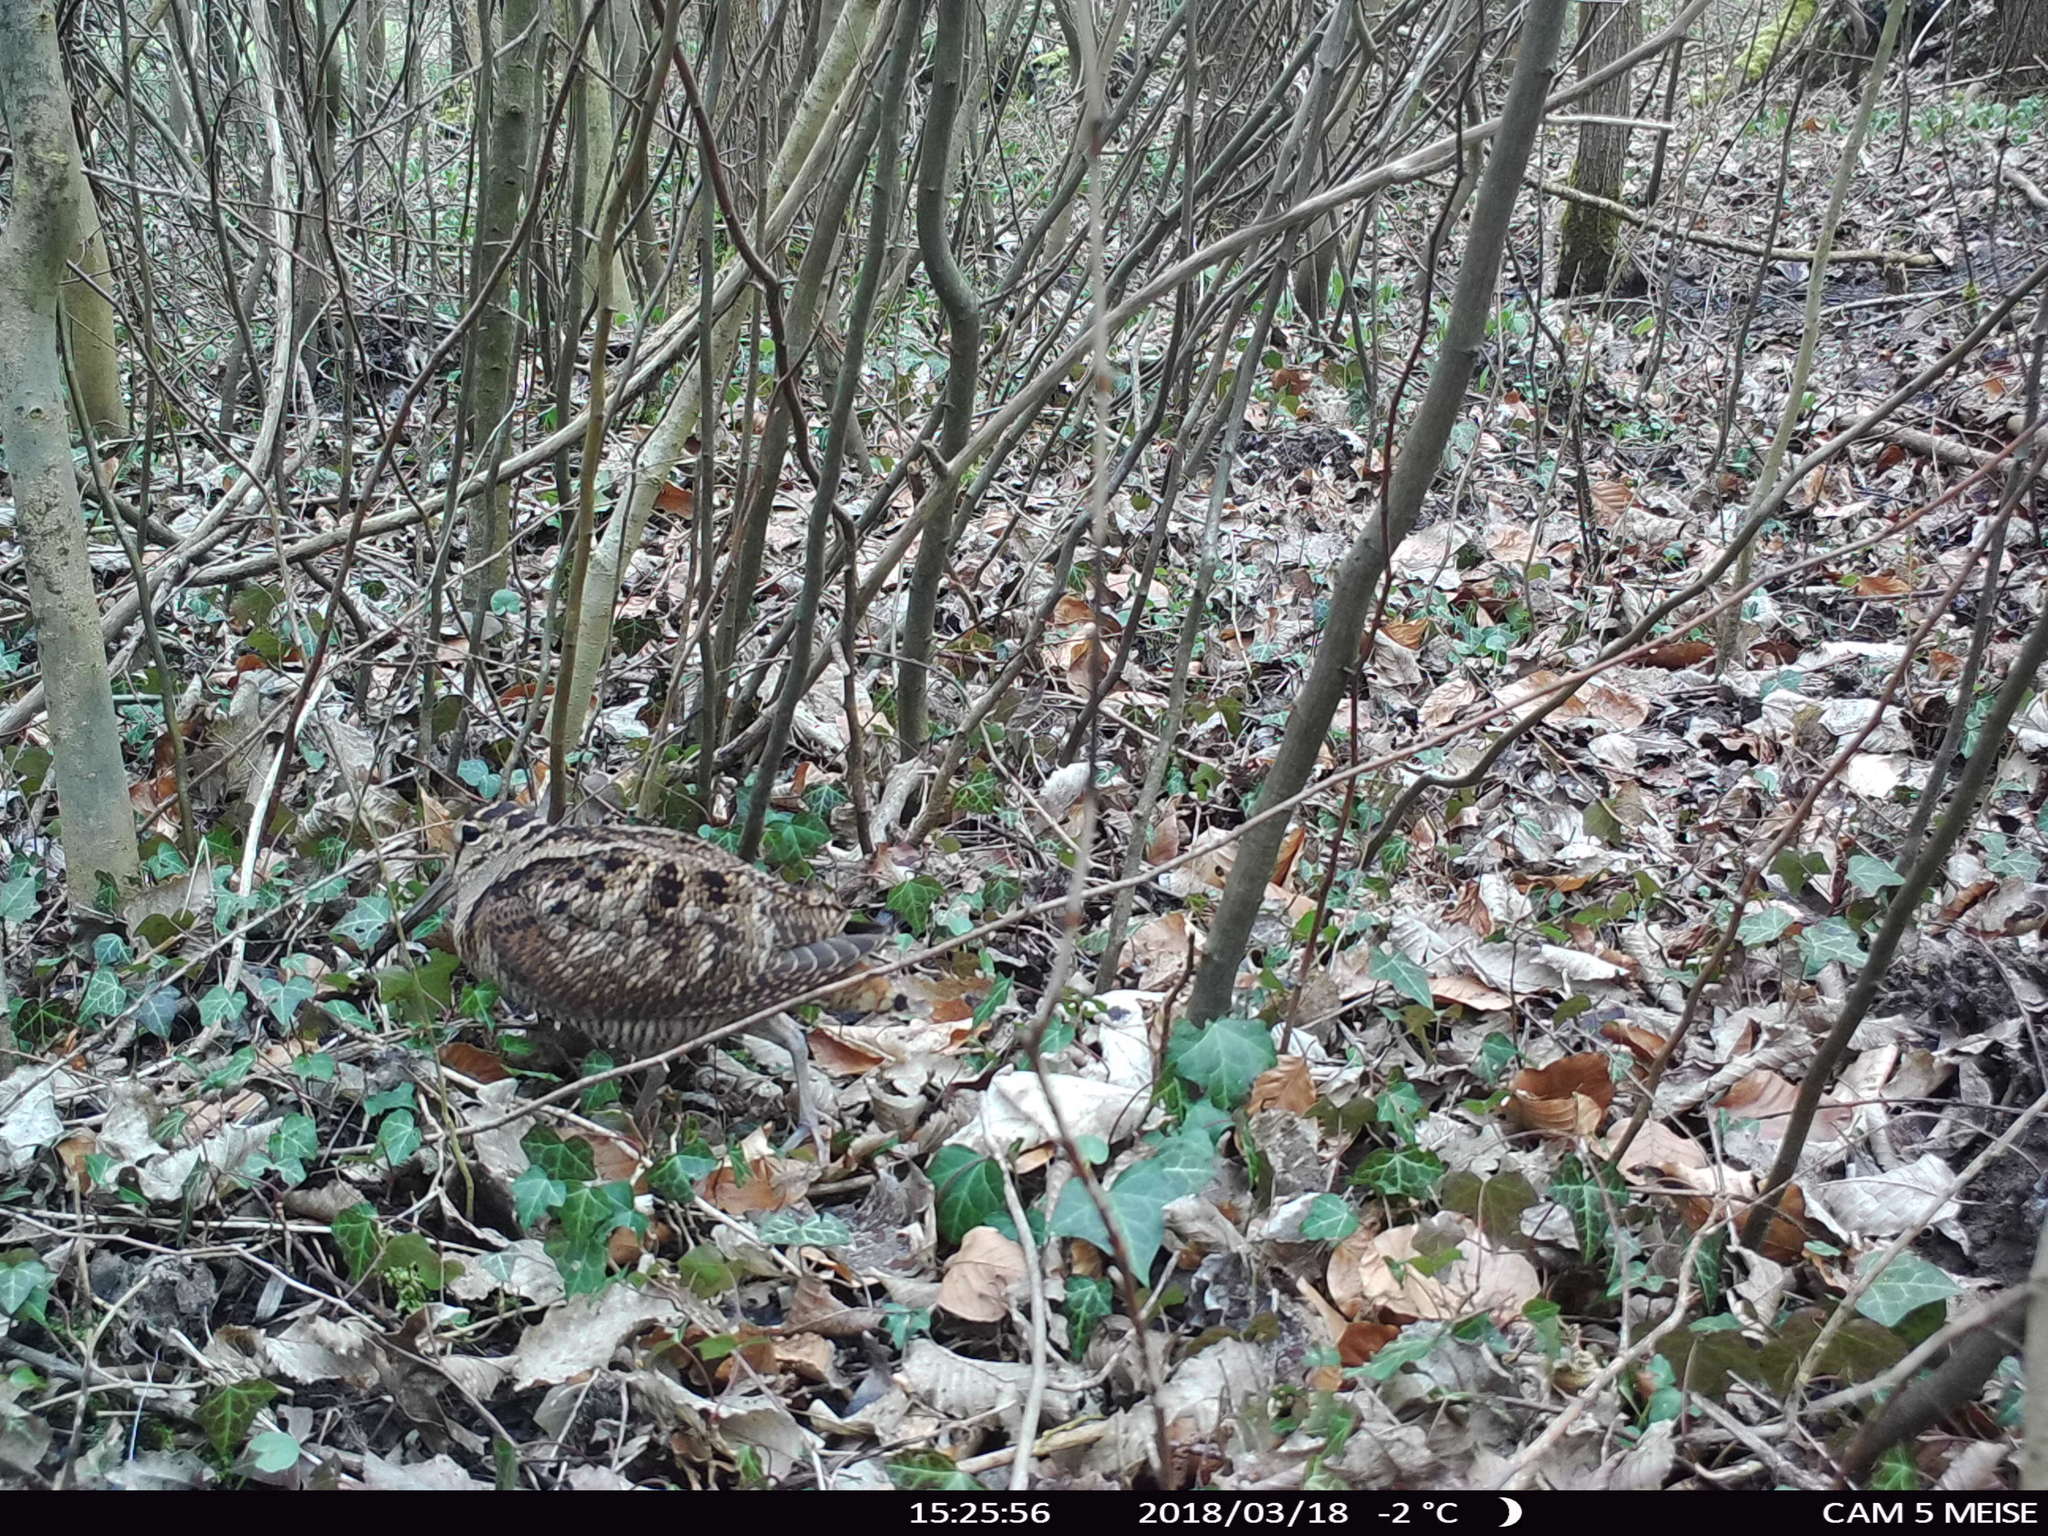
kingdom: Animalia
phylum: Chordata
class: Aves
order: Charadriiformes
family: Scolopacidae
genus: Scolopax
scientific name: Scolopax rusticola
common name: Eurasian woodcock
